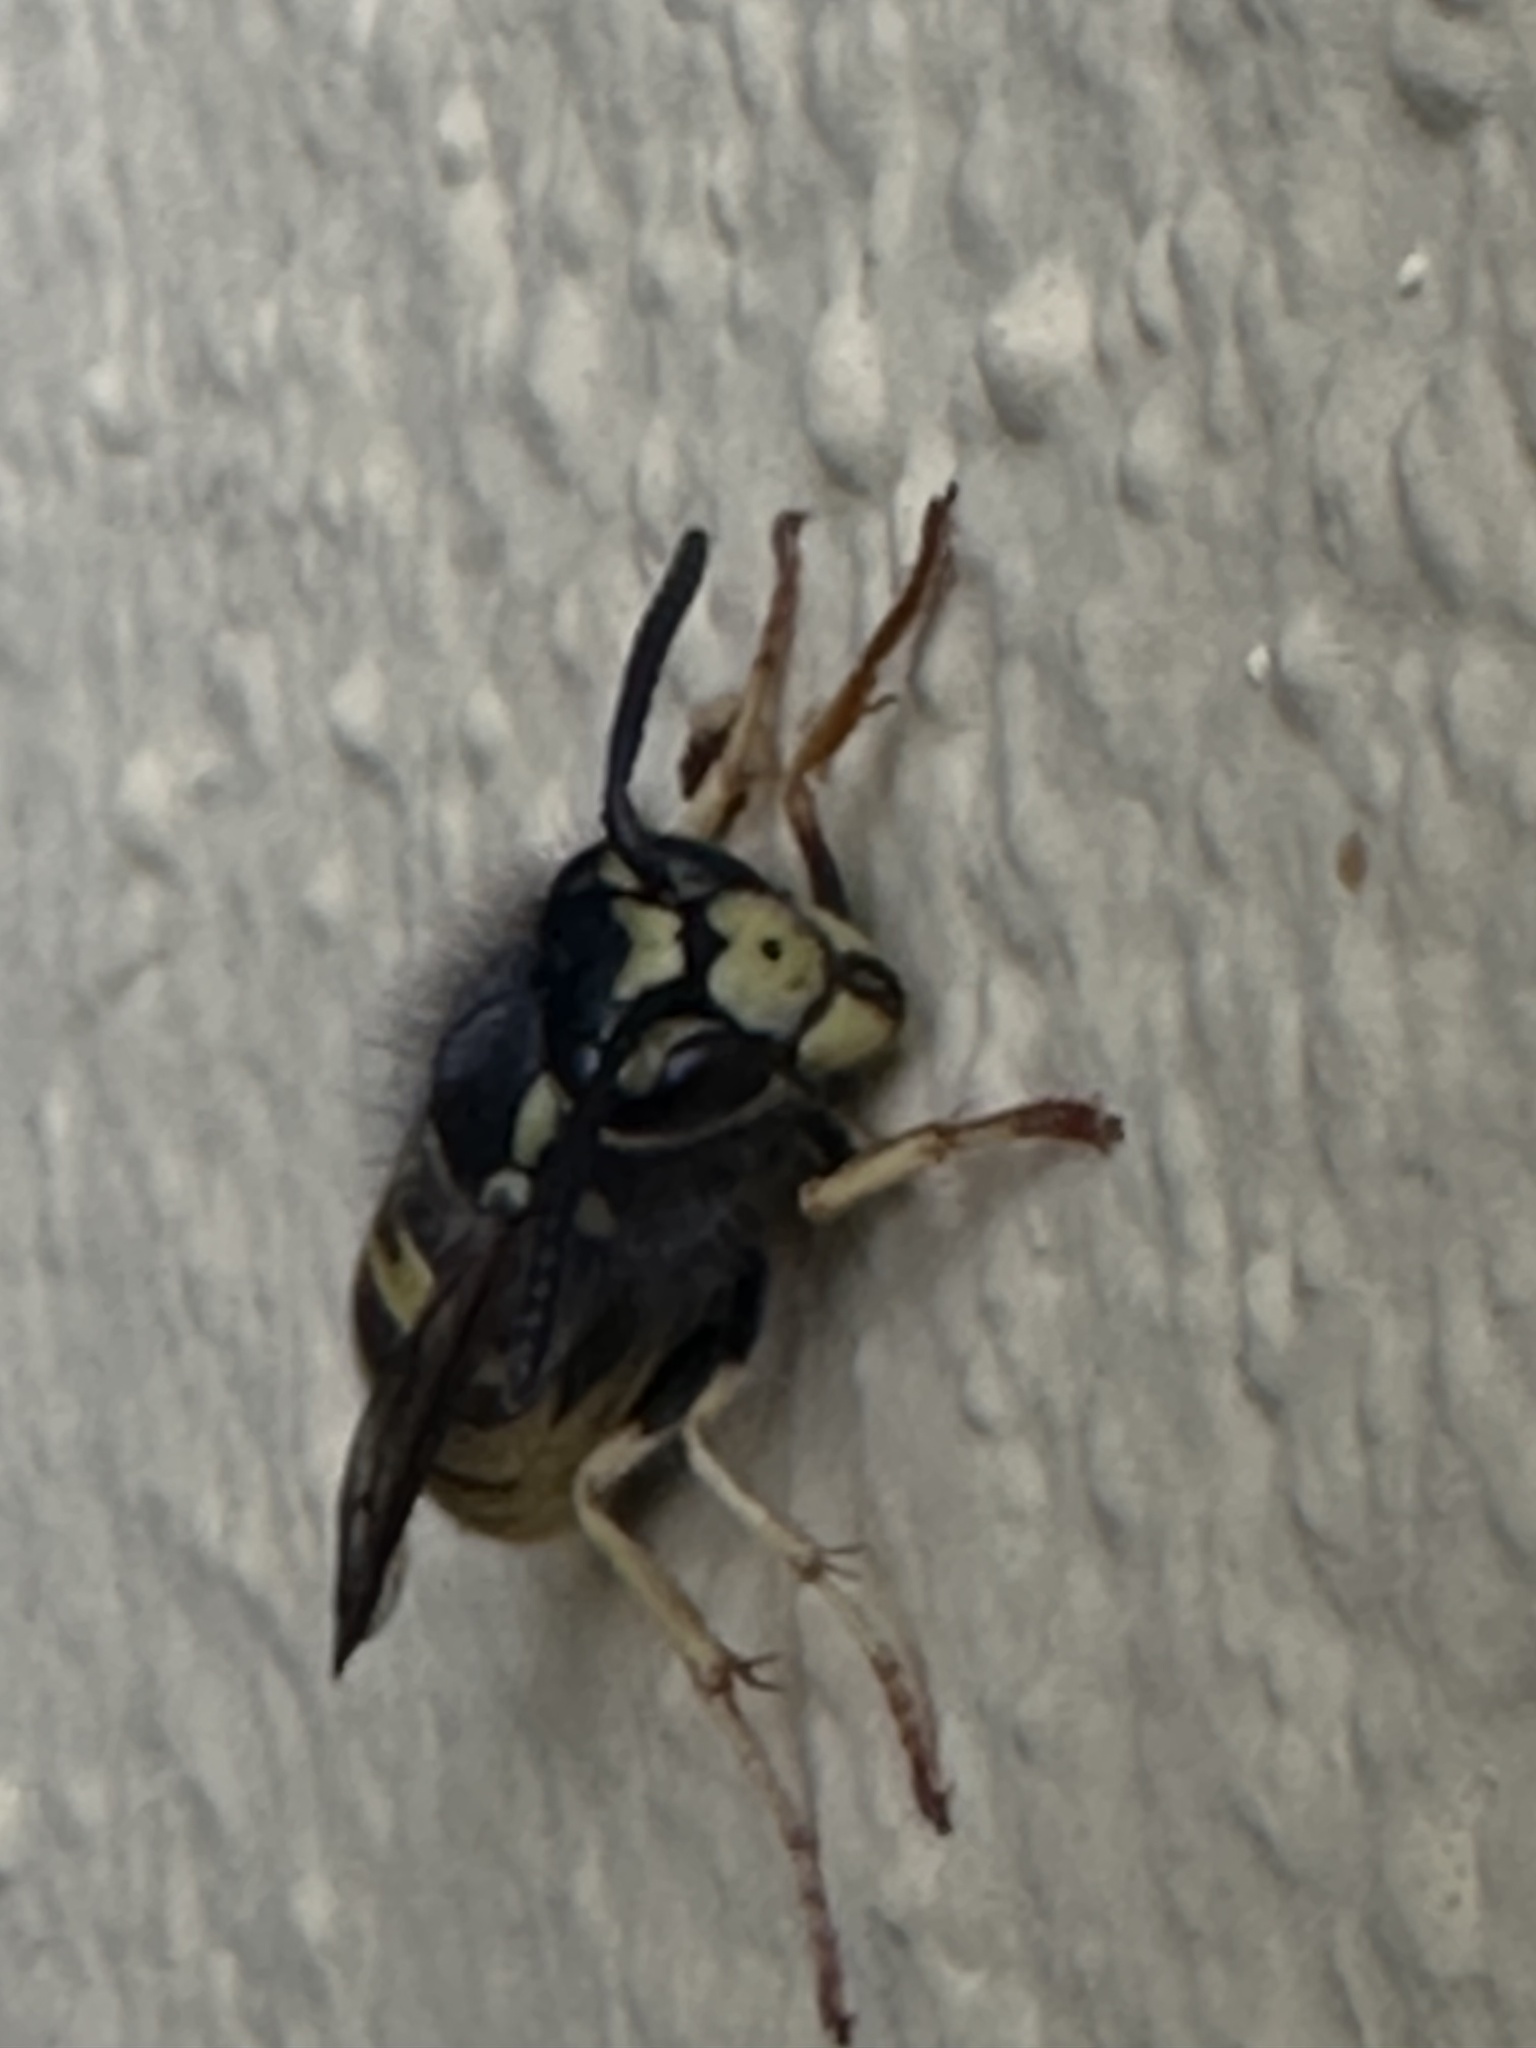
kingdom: Animalia
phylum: Arthropoda
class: Insecta
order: Hymenoptera
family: Vespidae
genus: Vespula
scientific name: Vespula germanica
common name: German wasp
